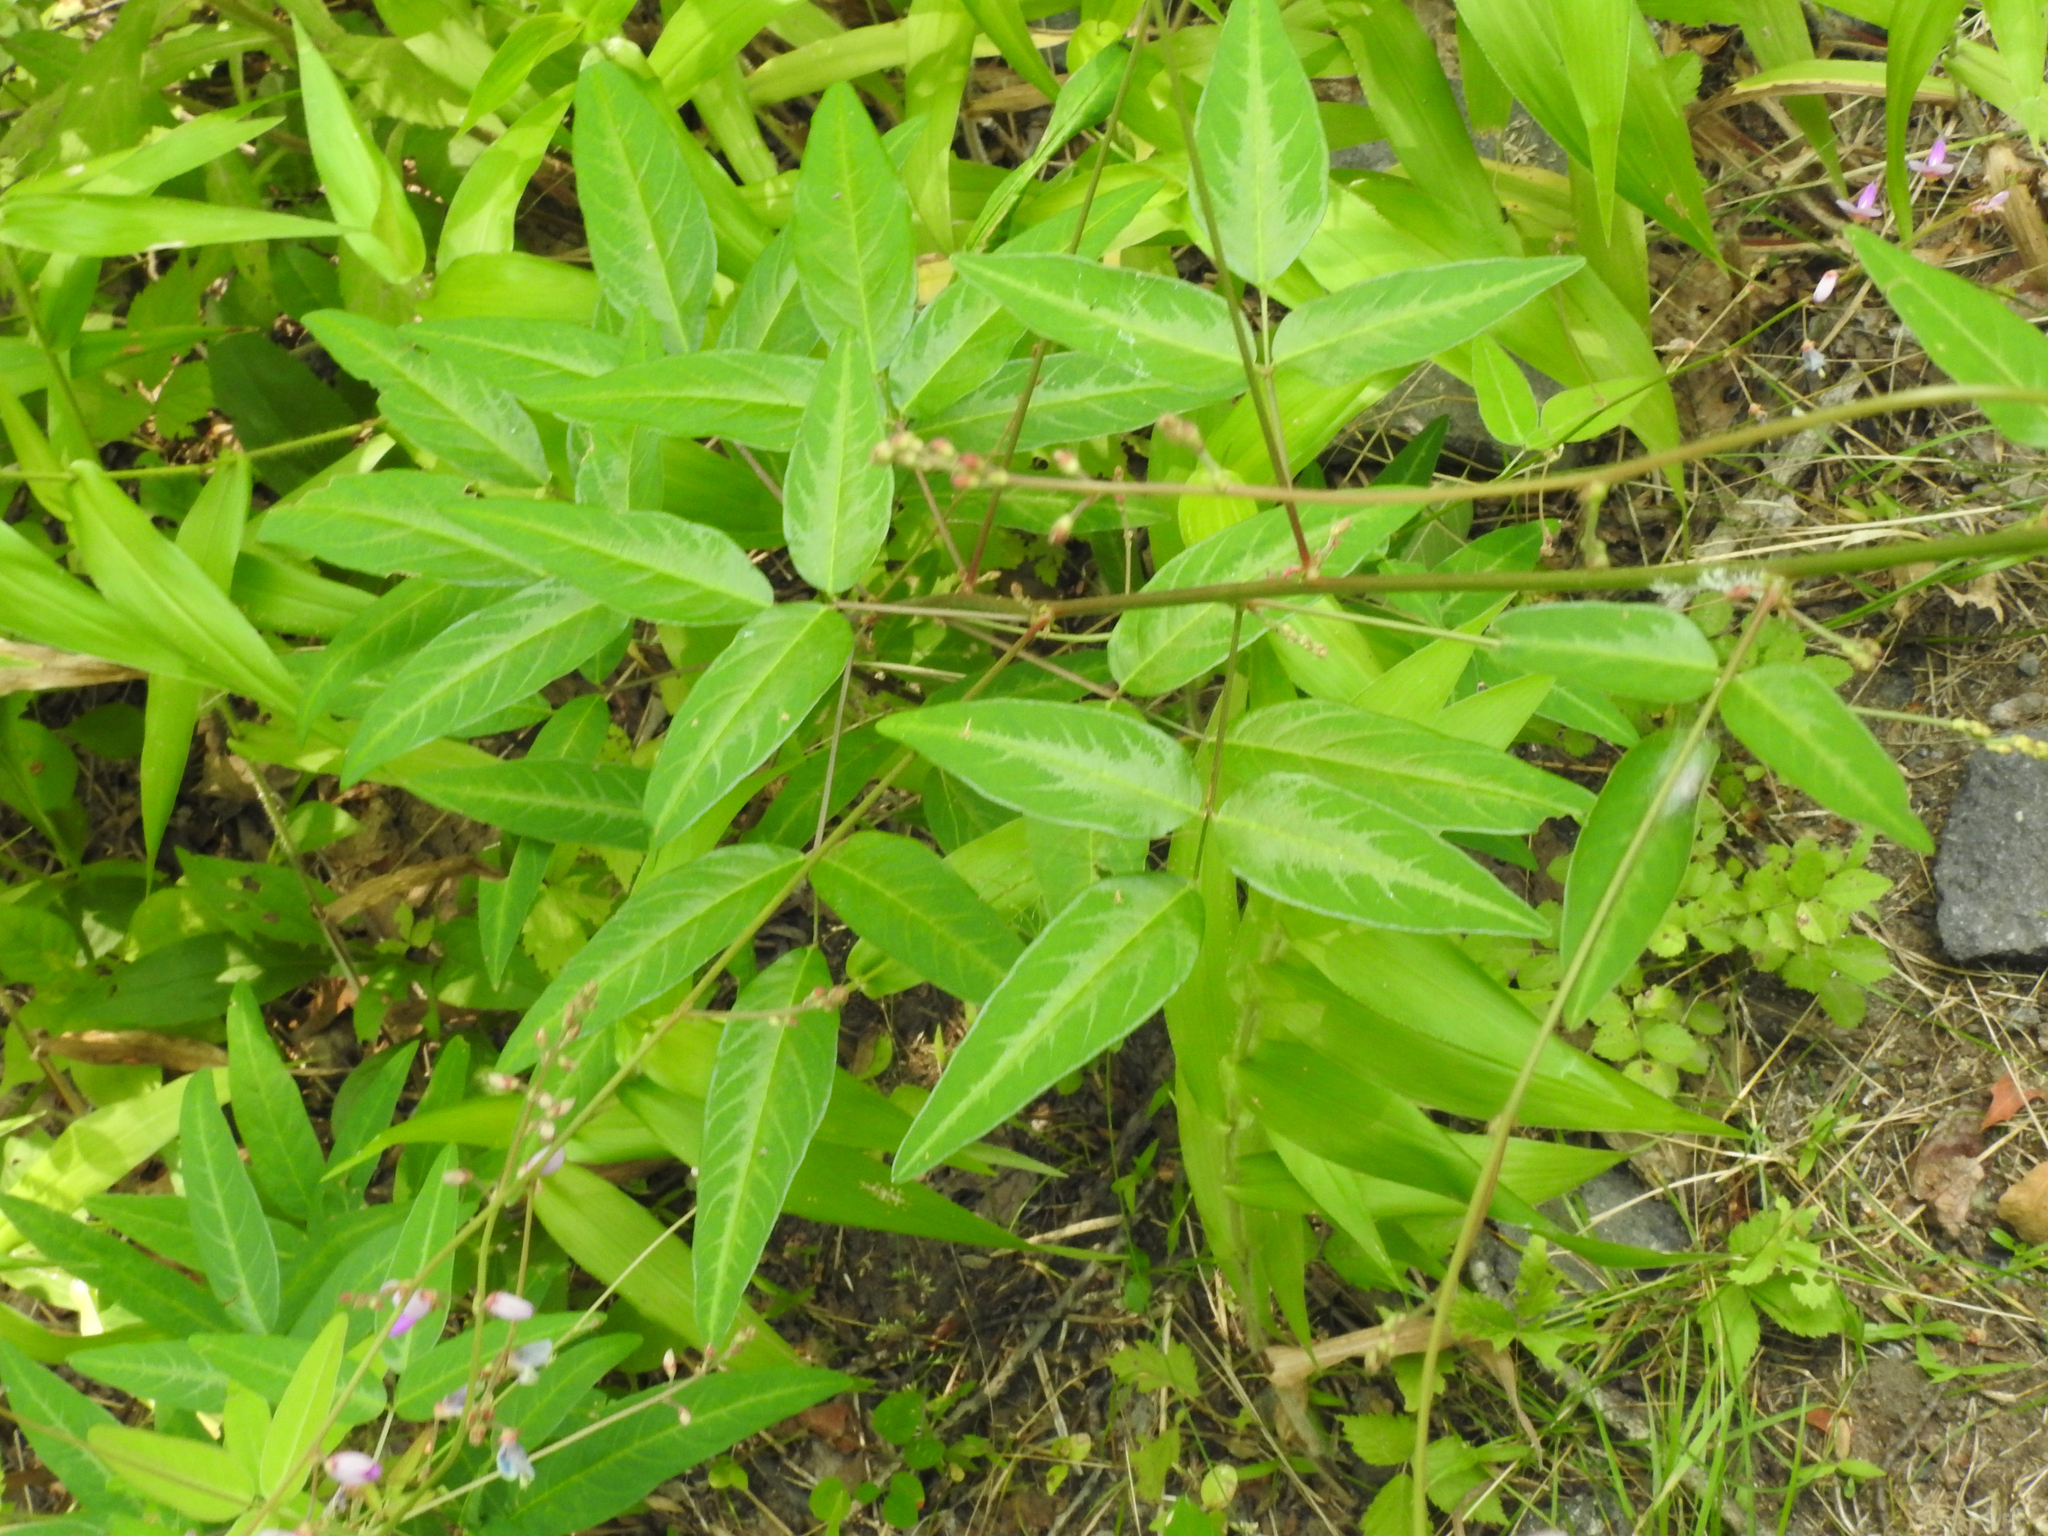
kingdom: Plantae
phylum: Tracheophyta
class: Magnoliopsida
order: Fabales
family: Fabaceae
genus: Desmodium
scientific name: Desmodium paniculatum
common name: Panicled tick-clover
